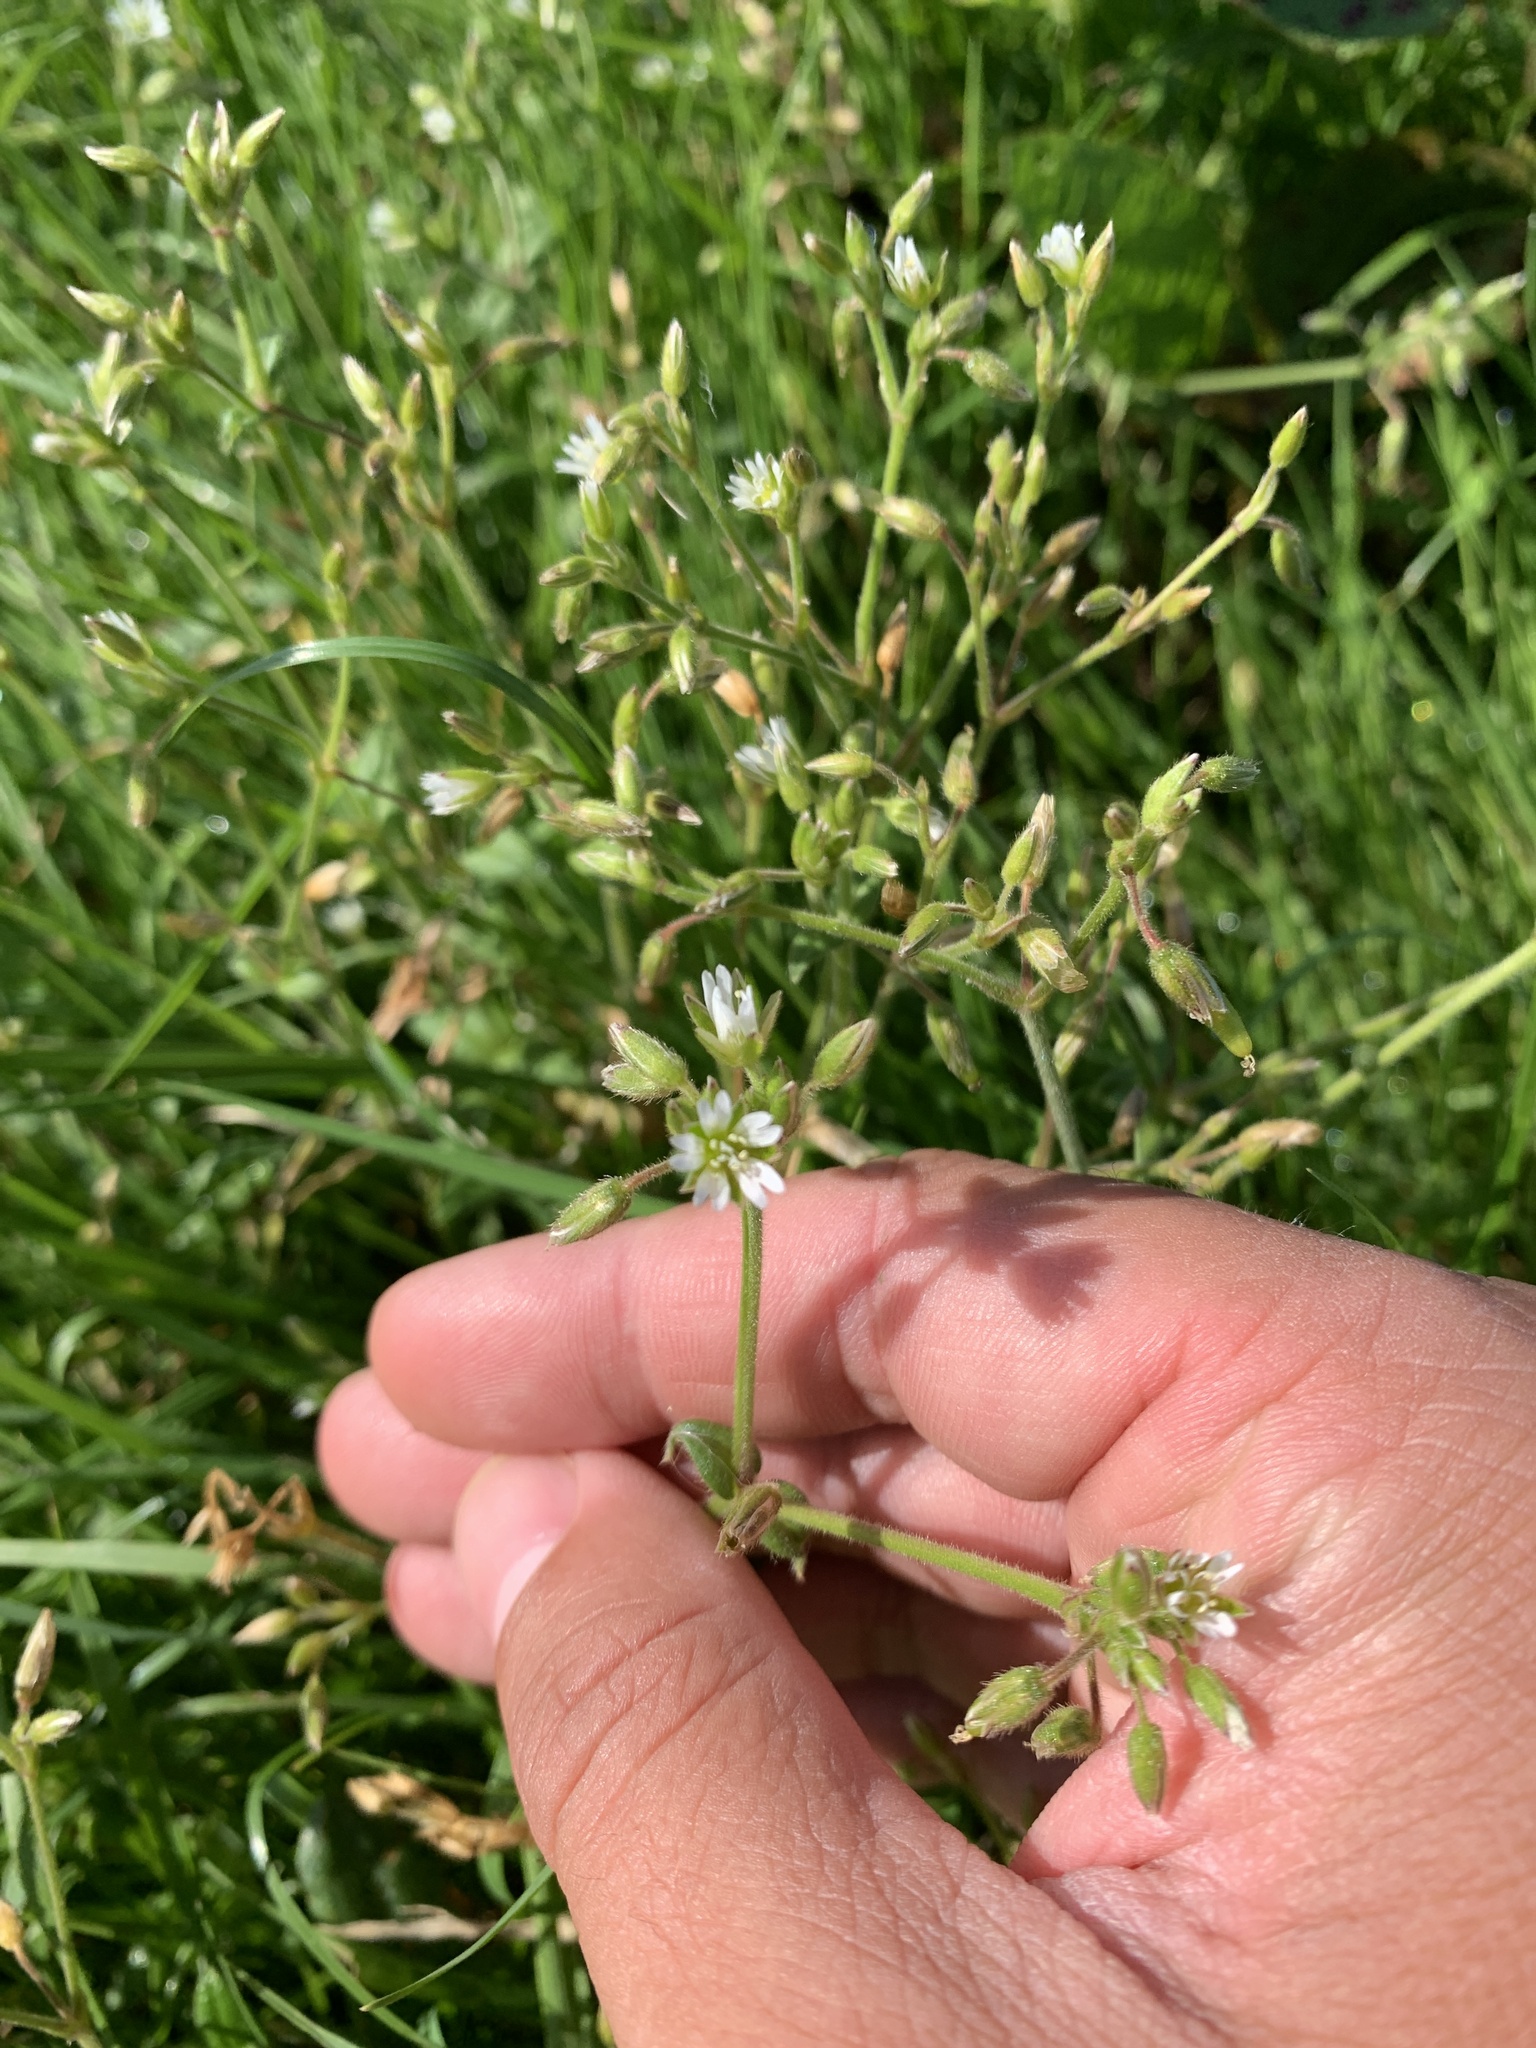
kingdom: Plantae
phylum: Tracheophyta
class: Magnoliopsida
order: Caryophyllales
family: Caryophyllaceae
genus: Cerastium
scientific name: Cerastium fontanum
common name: Common mouse-ear
